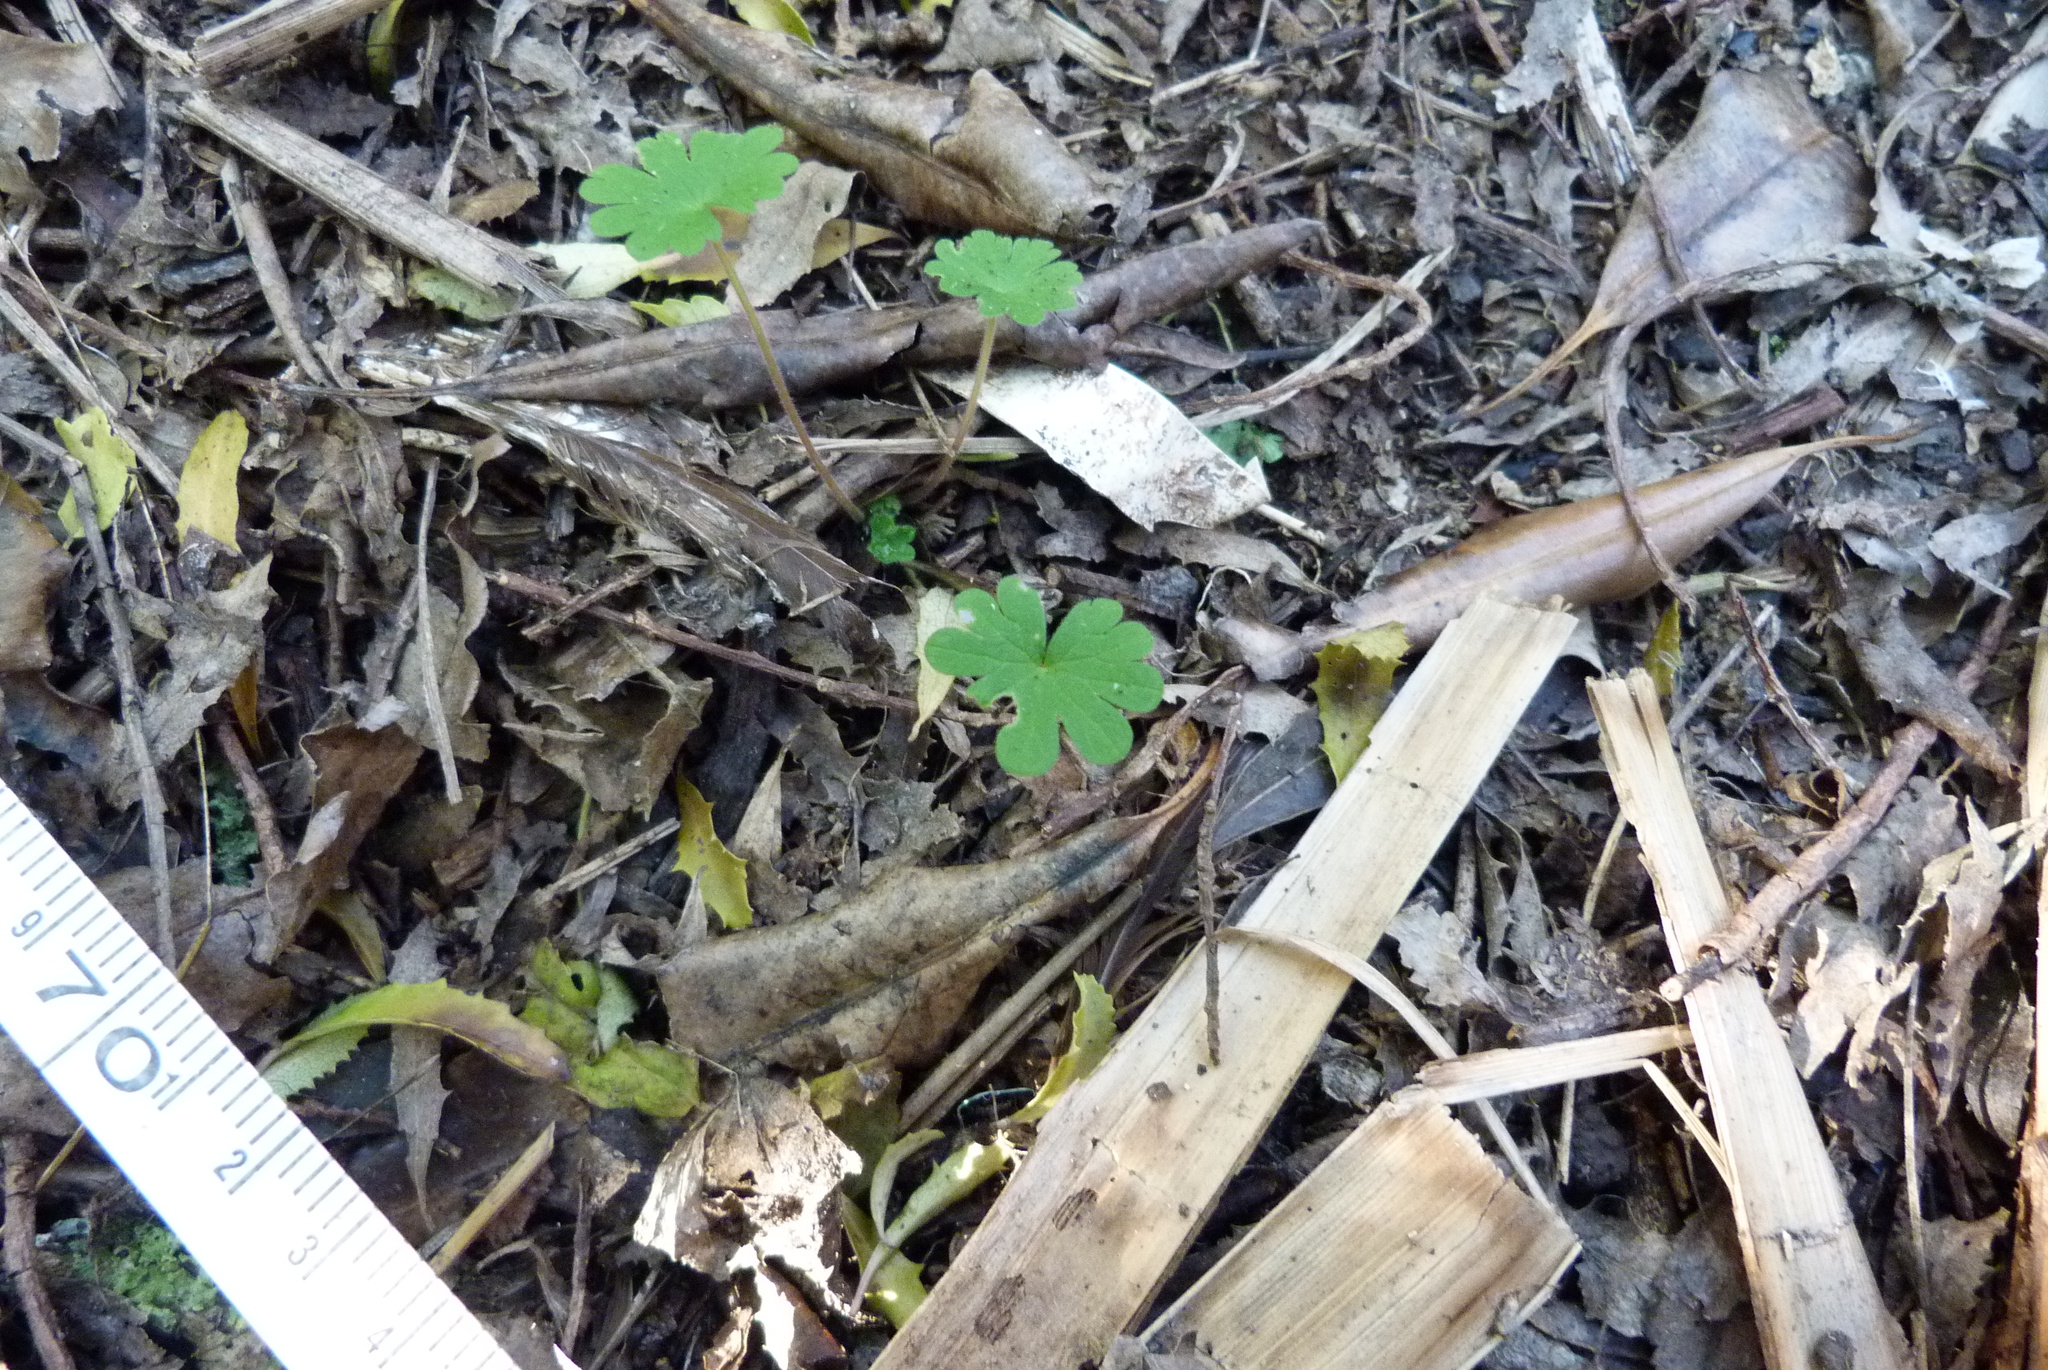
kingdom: Plantae
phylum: Tracheophyta
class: Magnoliopsida
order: Geraniales
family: Geraniaceae
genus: Geranium
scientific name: Geranium molle
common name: Dove's-foot crane's-bill
